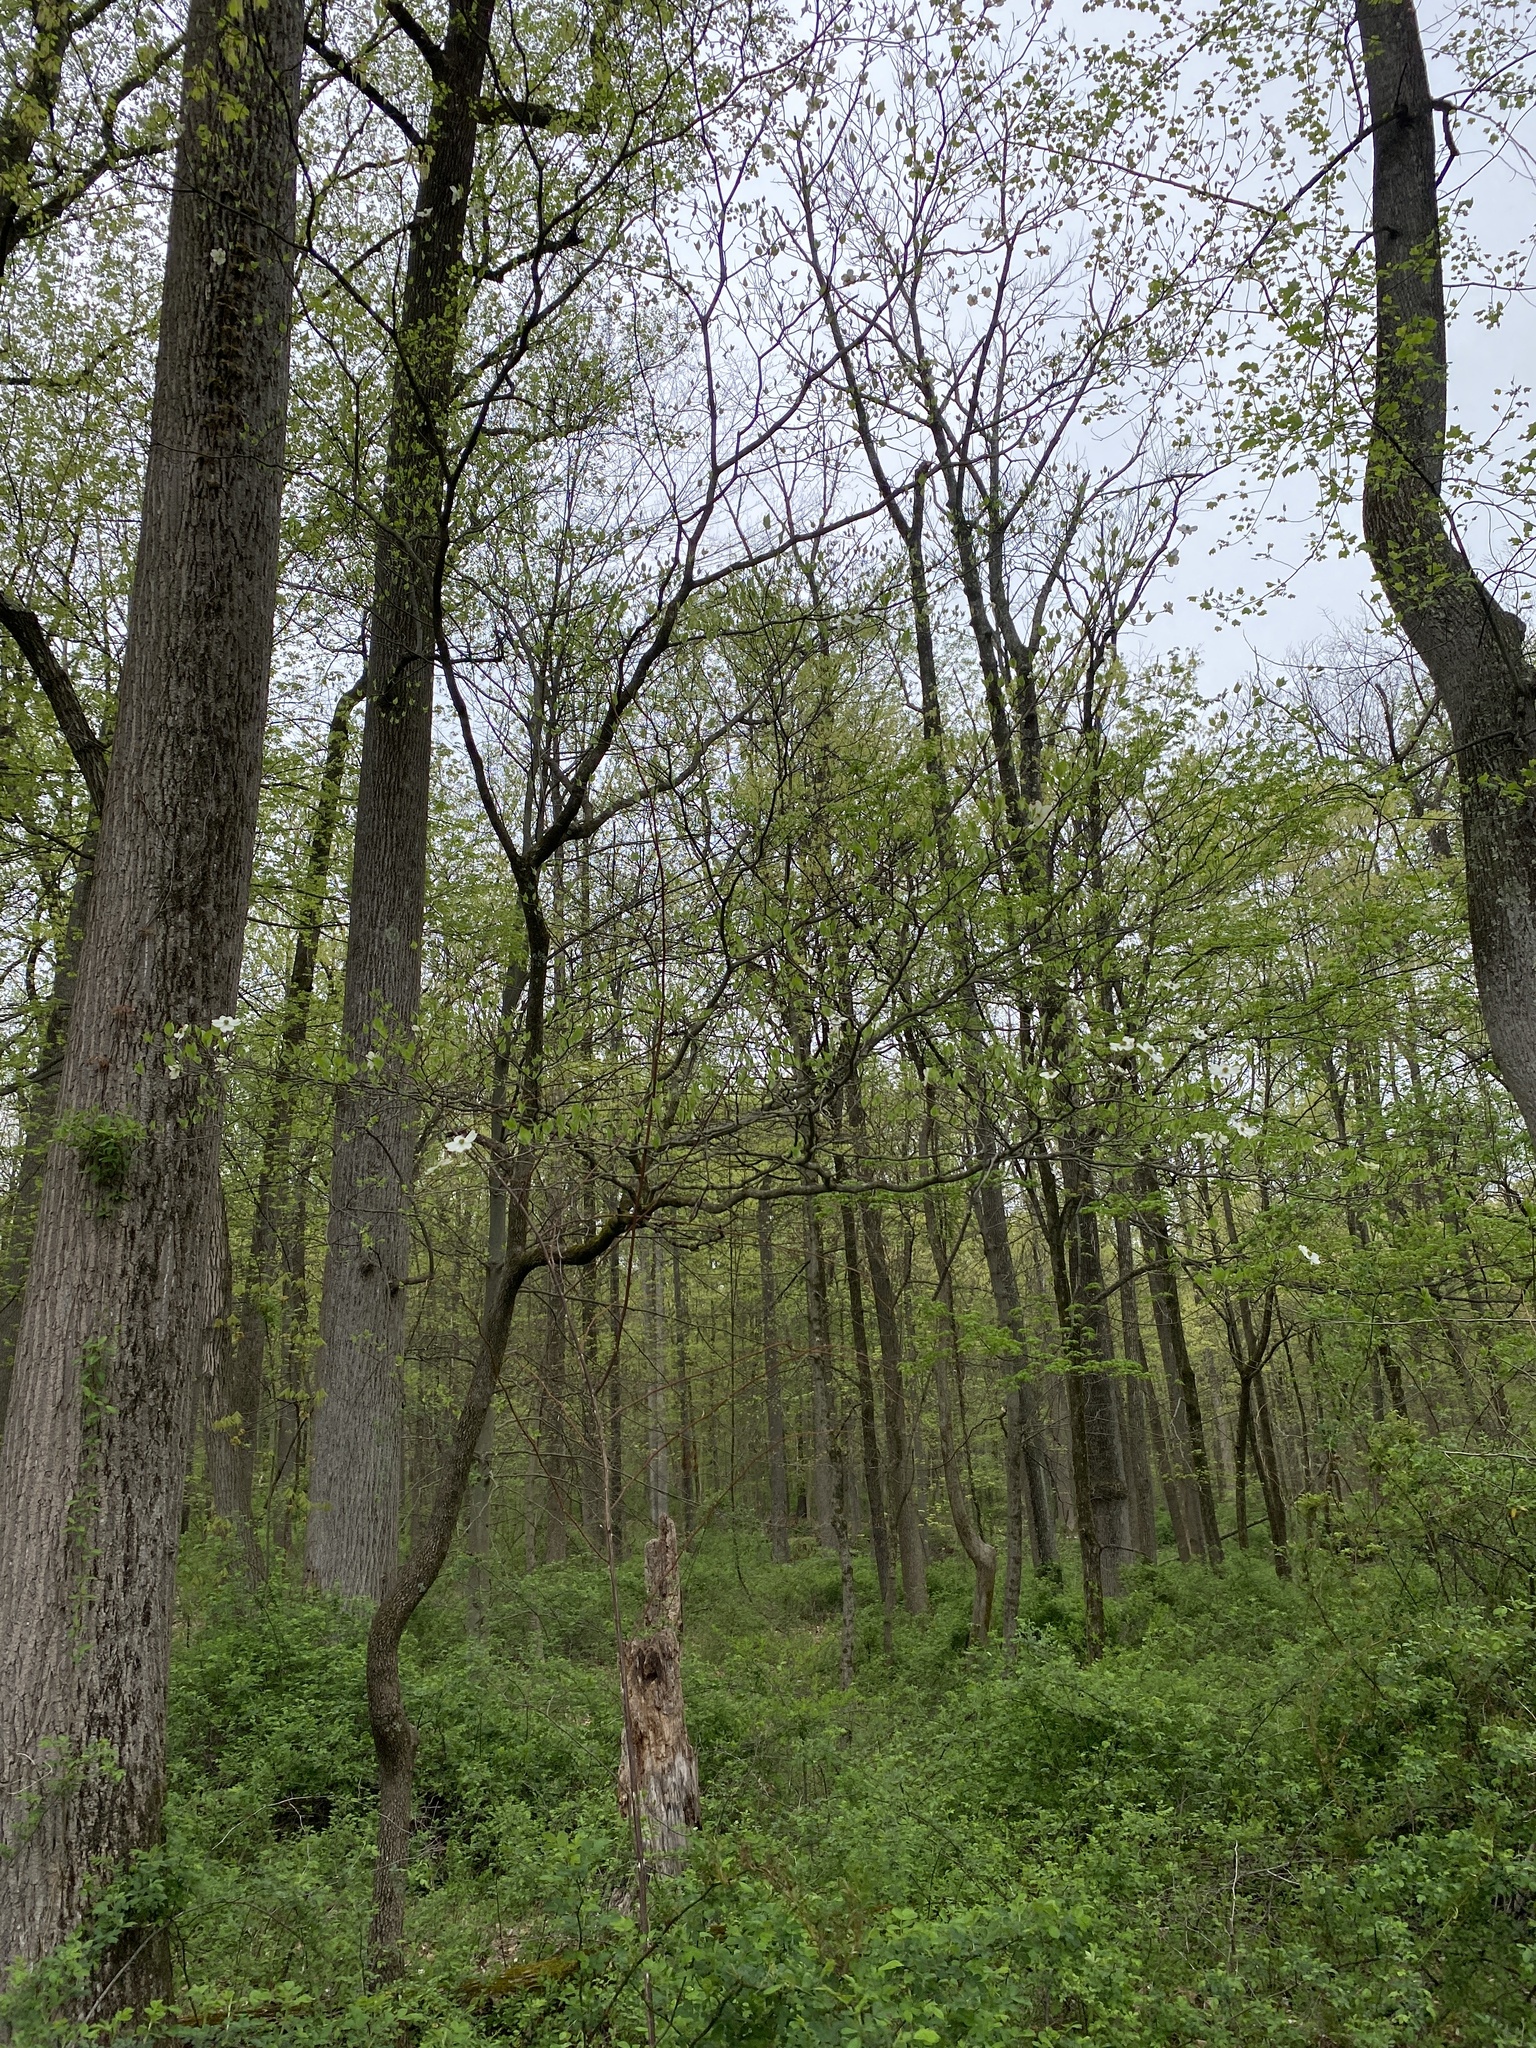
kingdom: Plantae
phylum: Tracheophyta
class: Magnoliopsida
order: Cornales
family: Cornaceae
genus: Cornus
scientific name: Cornus florida
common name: Flowering dogwood
